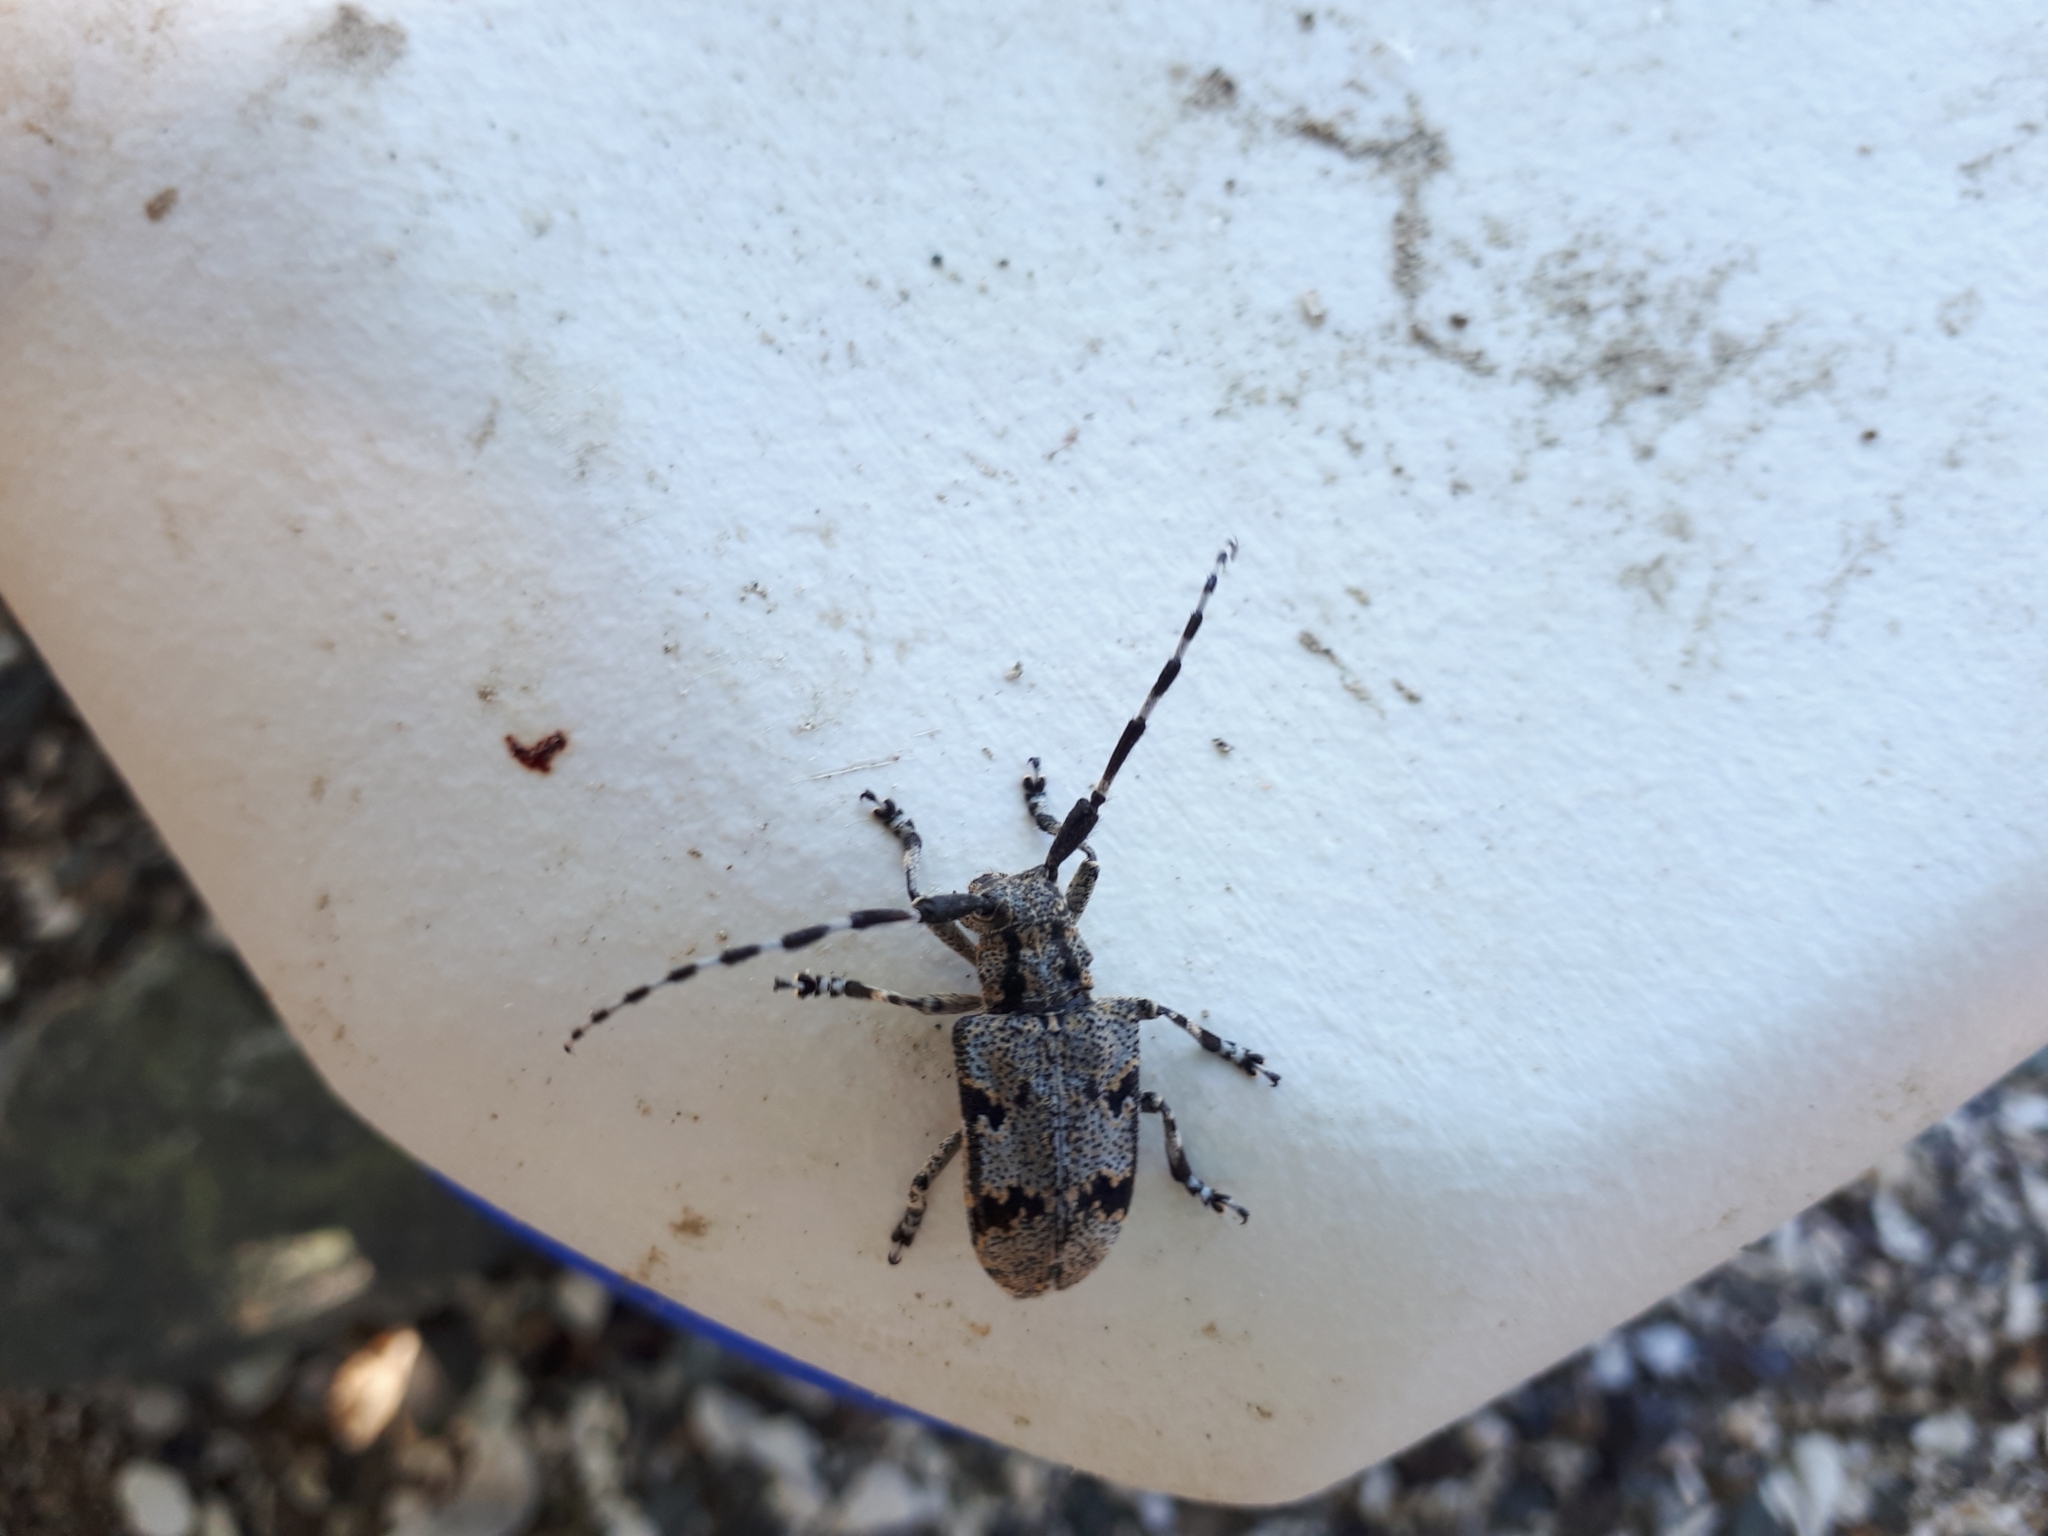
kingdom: Animalia
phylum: Arthropoda
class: Insecta
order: Coleoptera
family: Cerambycidae
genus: Synaphaeta
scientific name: Synaphaeta guexi
